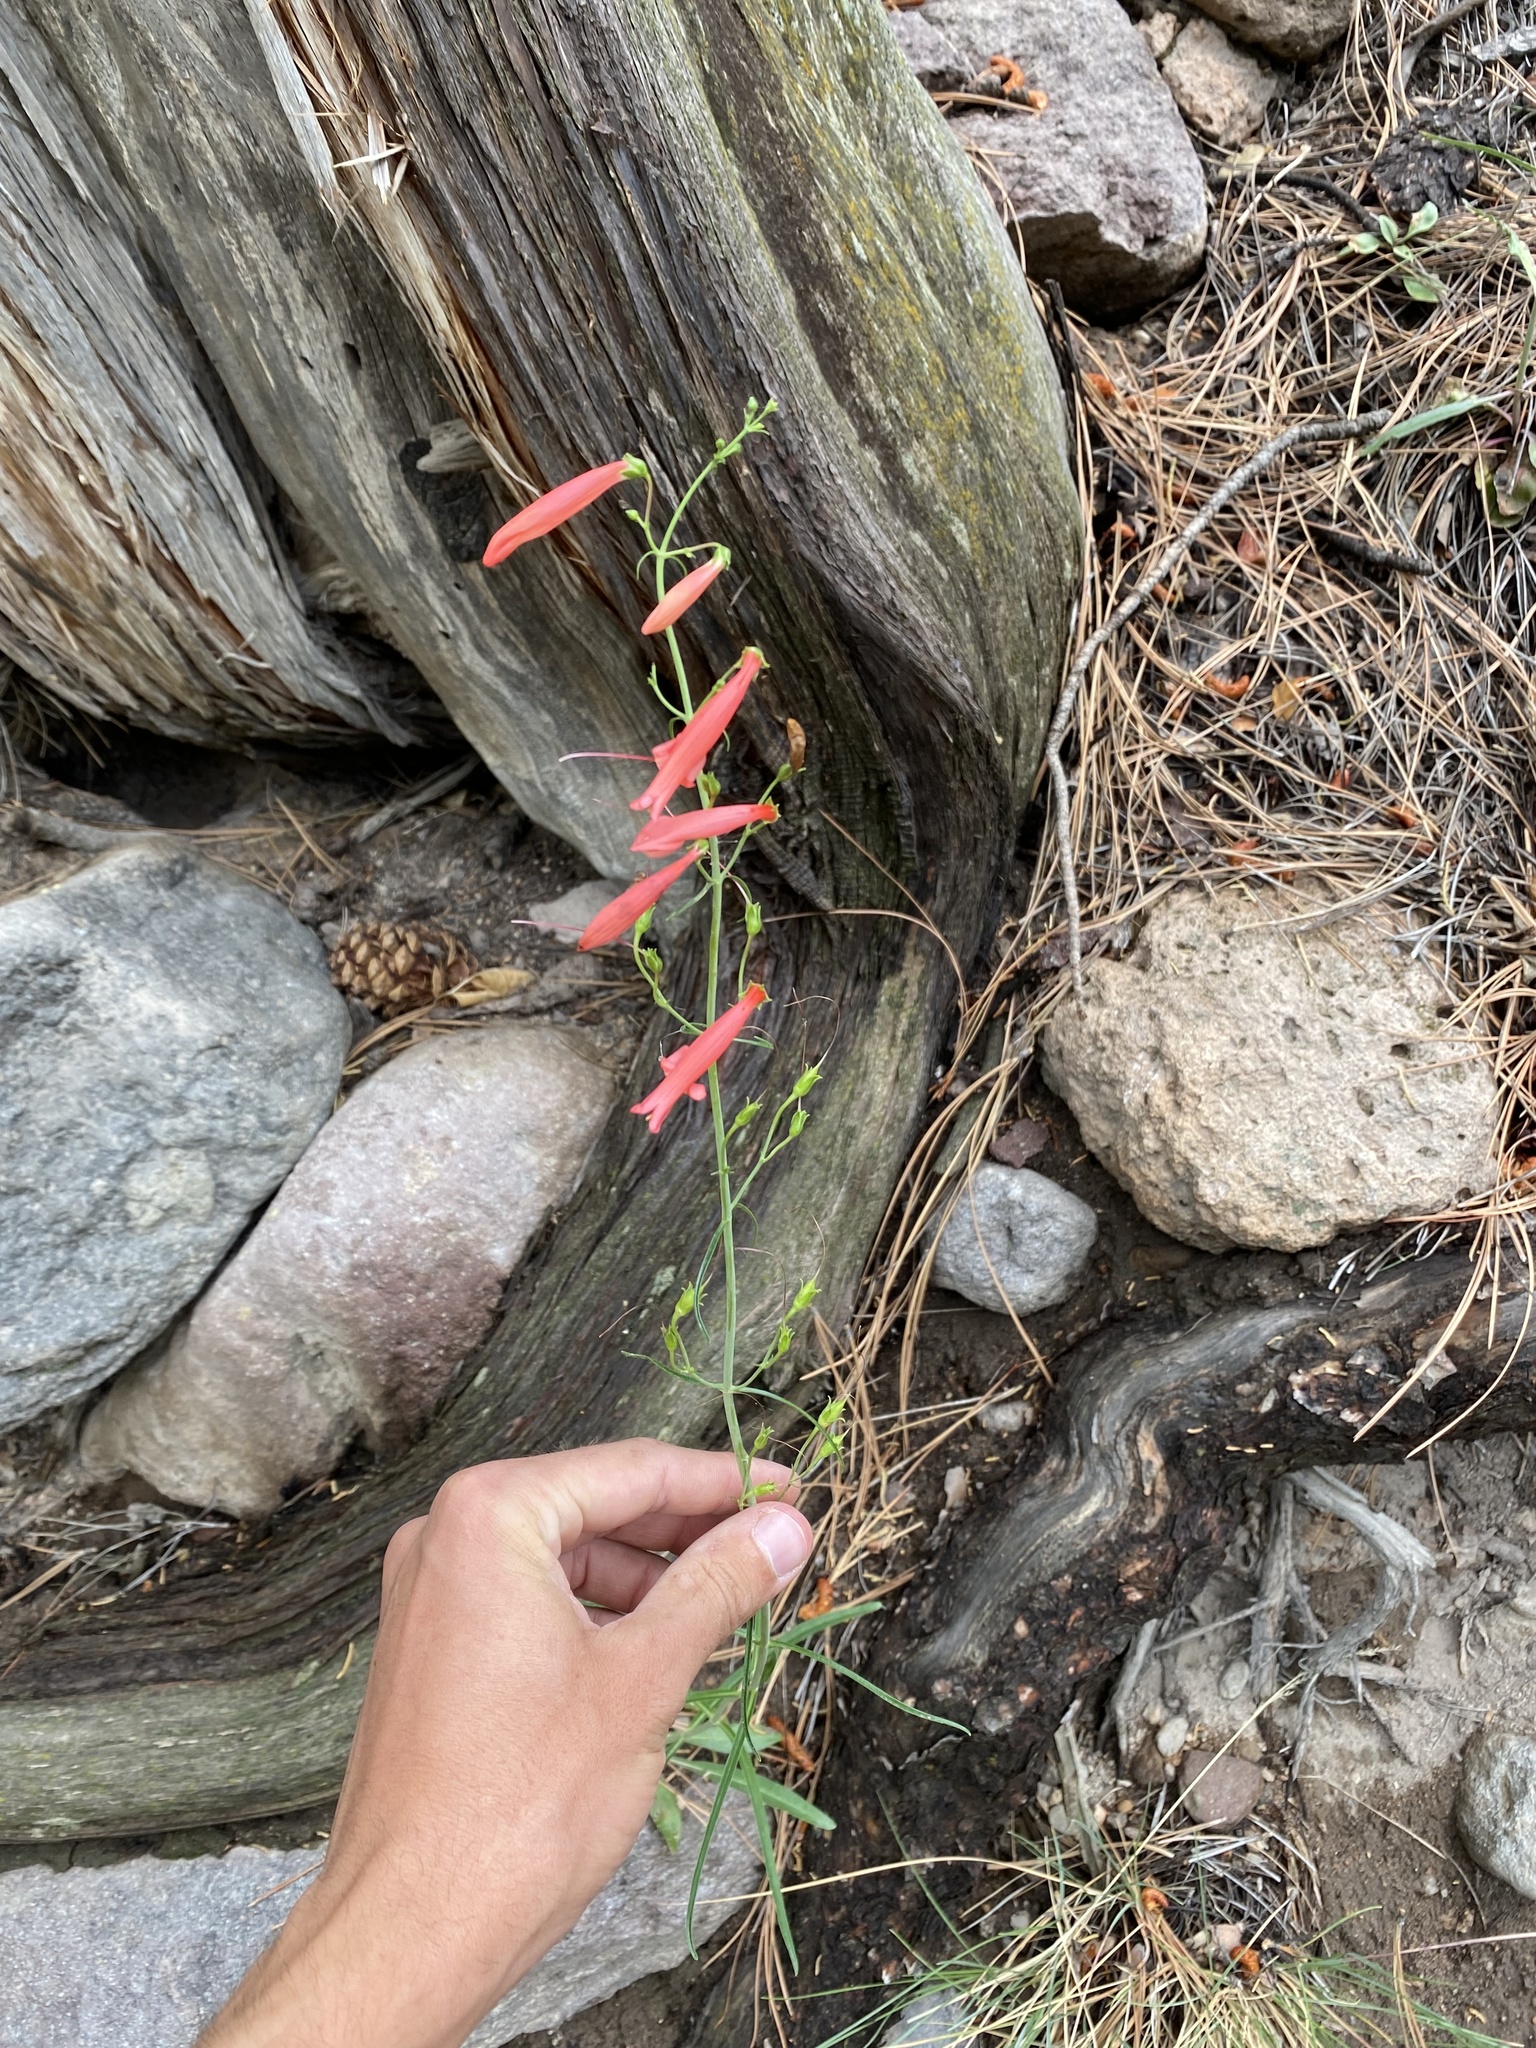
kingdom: Plantae
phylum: Tracheophyta
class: Magnoliopsida
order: Lamiales
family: Plantaginaceae
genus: Penstemon
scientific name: Penstemon barbatus
